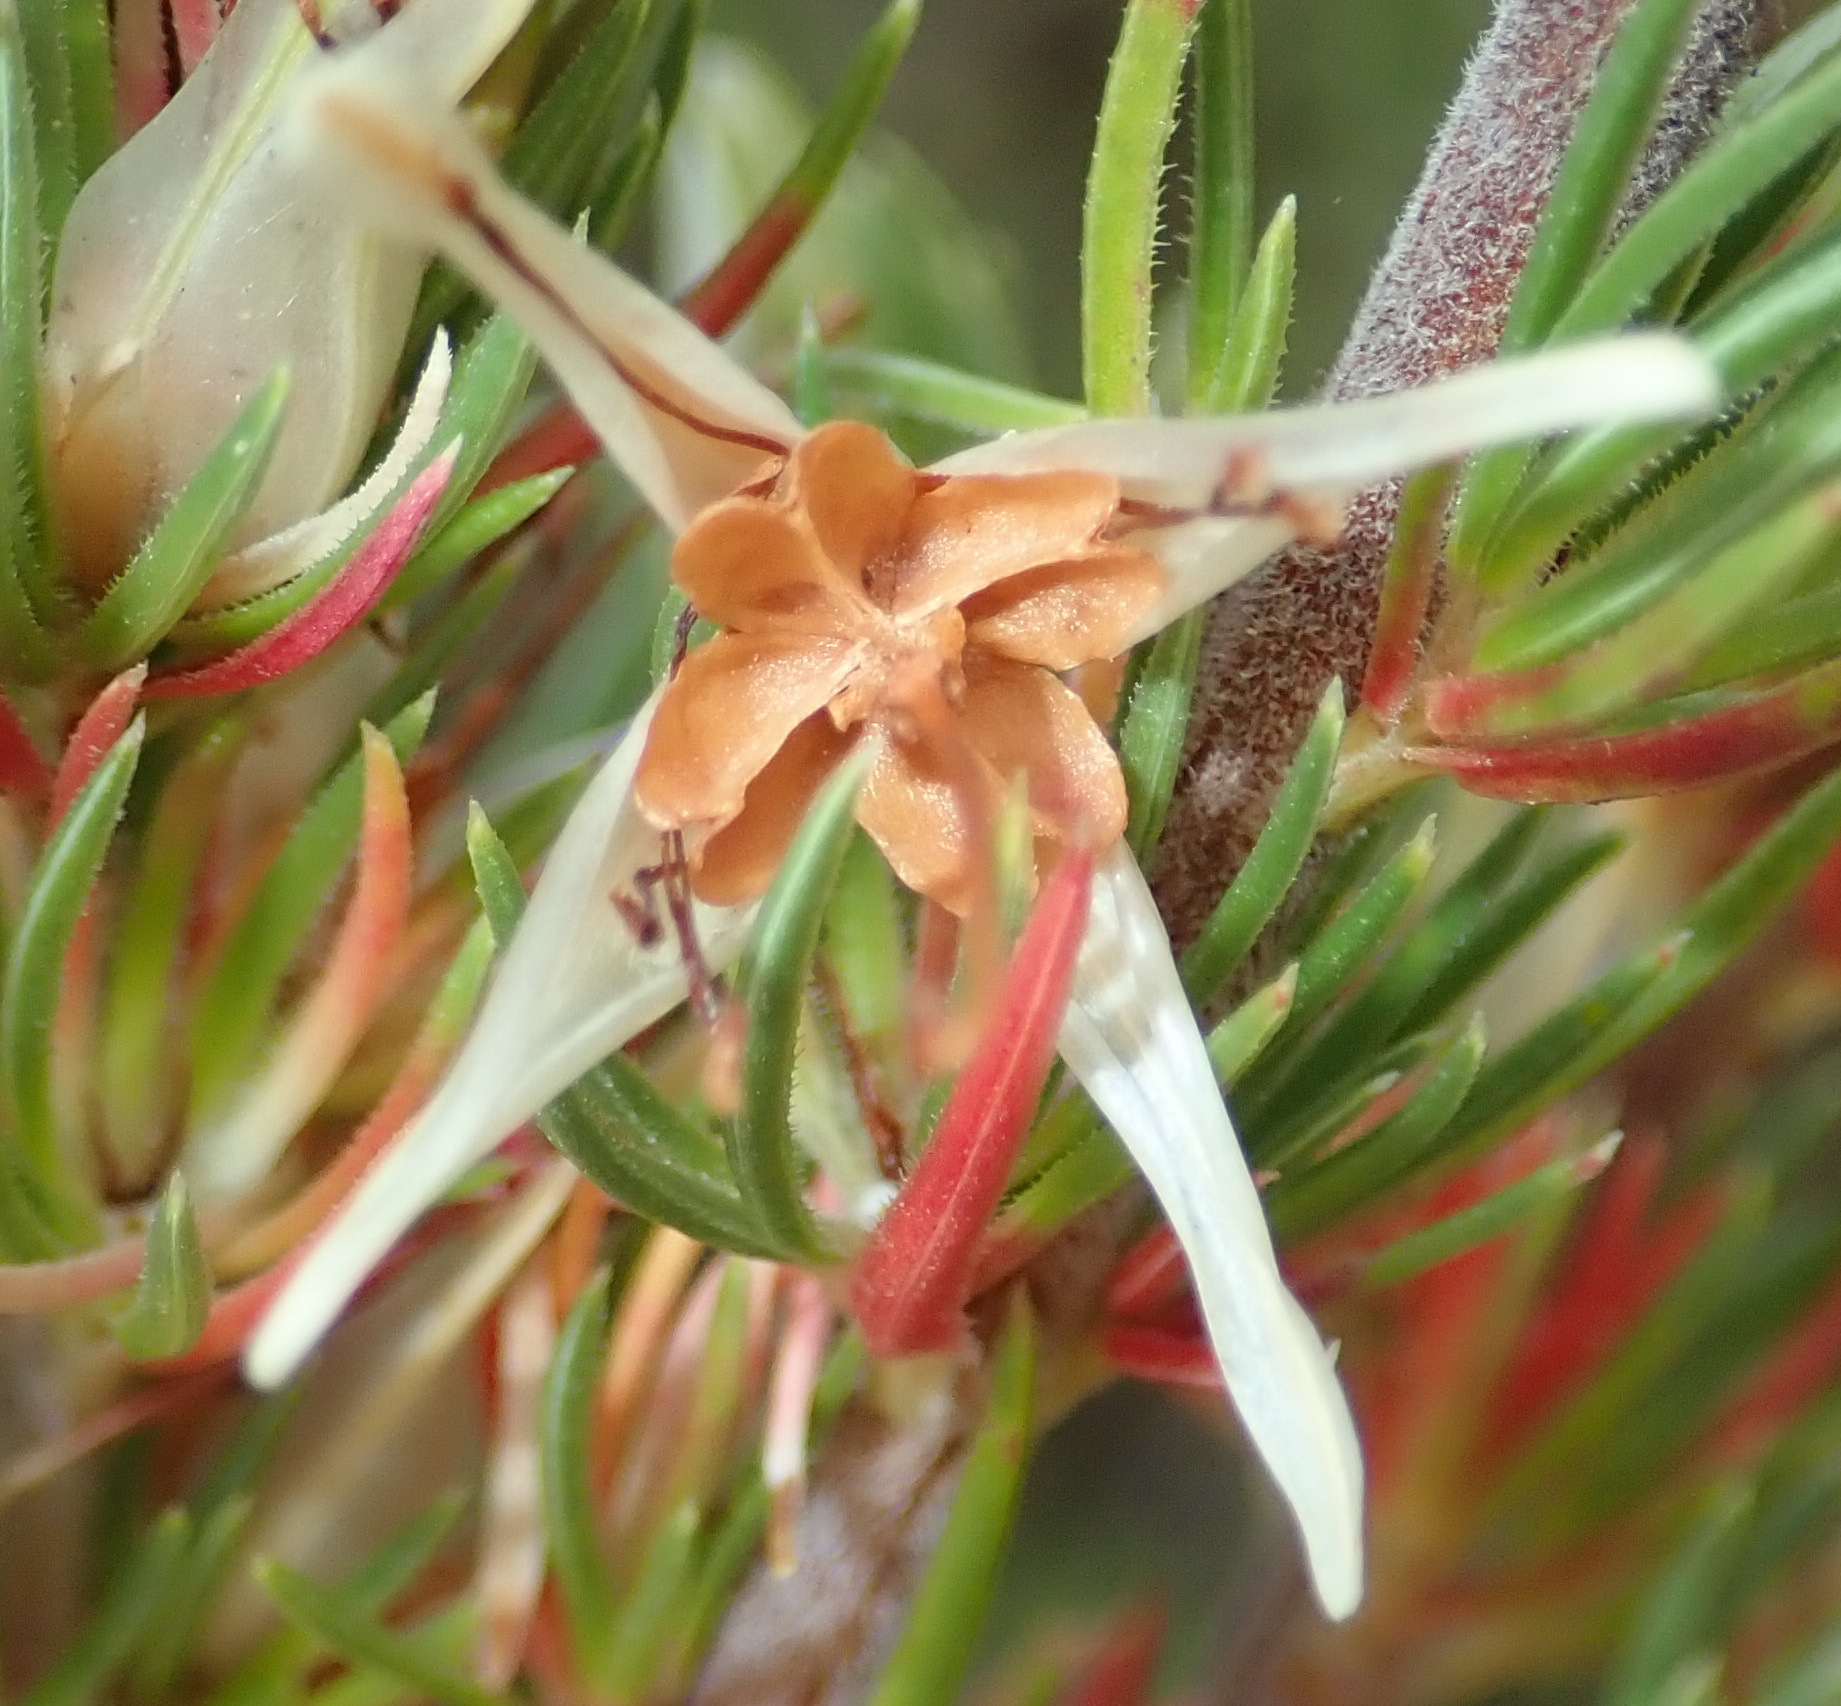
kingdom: Plantae
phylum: Tracheophyta
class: Magnoliopsida
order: Ericales
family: Ericaceae
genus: Erica
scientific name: Erica nabea
